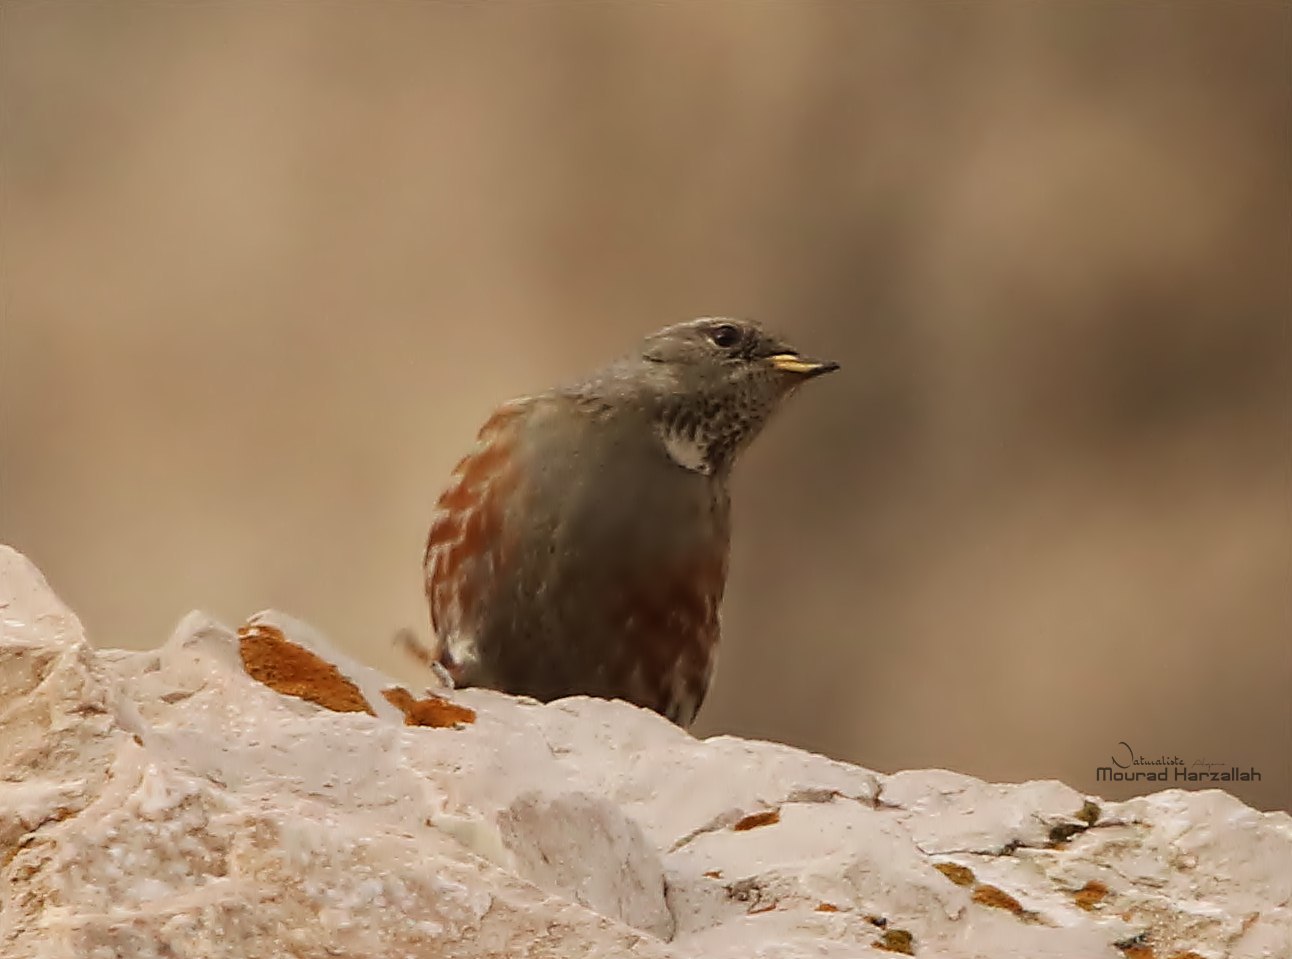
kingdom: Animalia
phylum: Chordata
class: Aves
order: Passeriformes
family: Prunellidae
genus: Prunella
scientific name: Prunella collaris
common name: Alpine accentor
